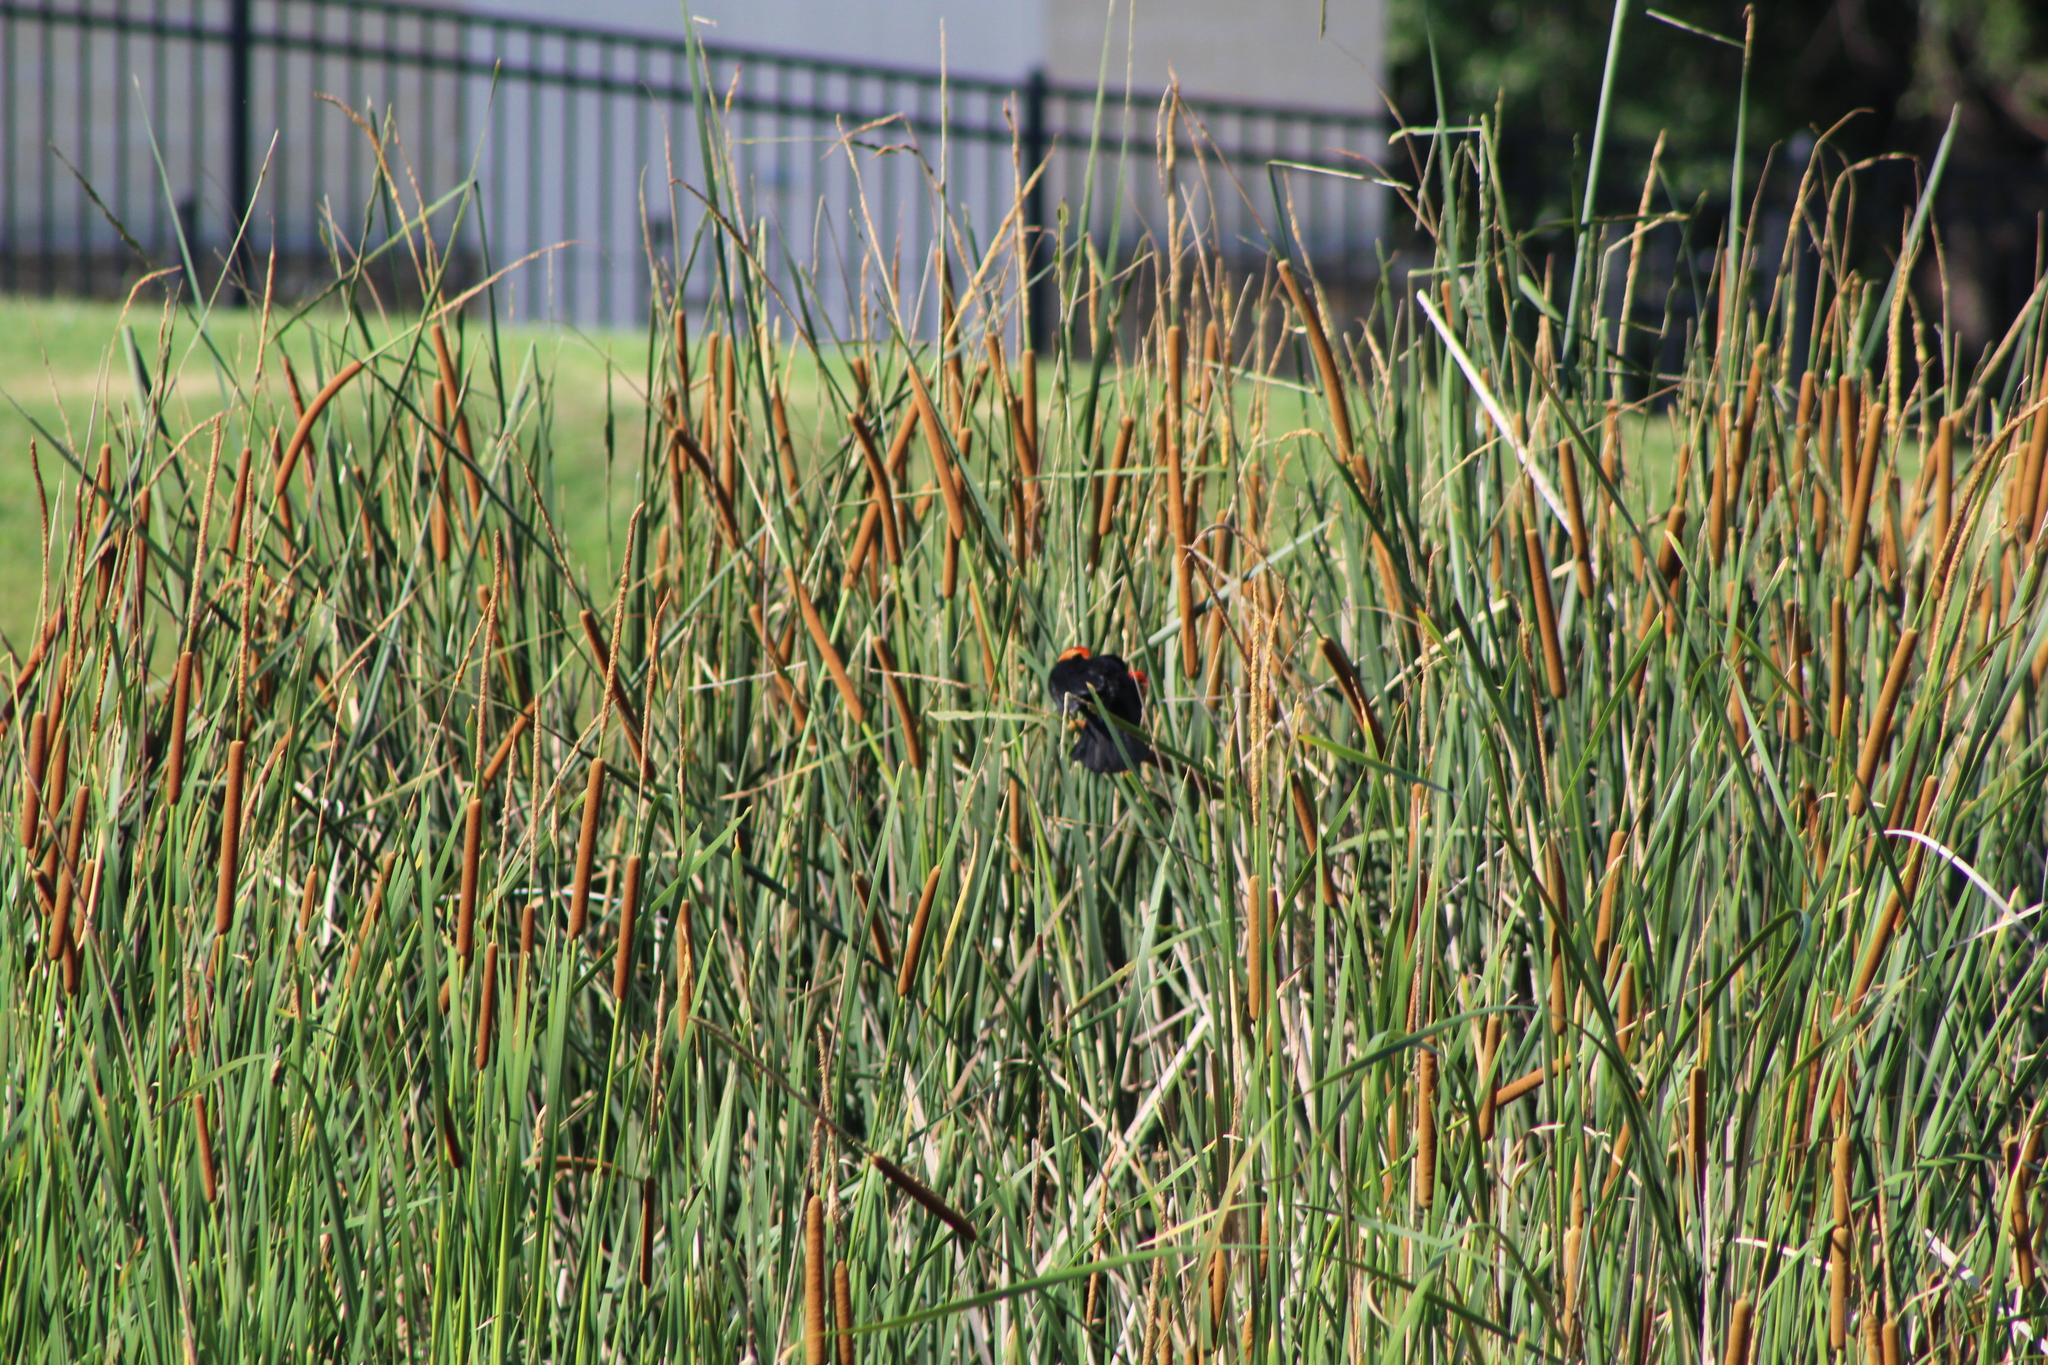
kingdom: Animalia
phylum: Chordata
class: Aves
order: Passeriformes
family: Icteridae
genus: Agelaius
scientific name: Agelaius phoeniceus
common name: Red-winged blackbird
